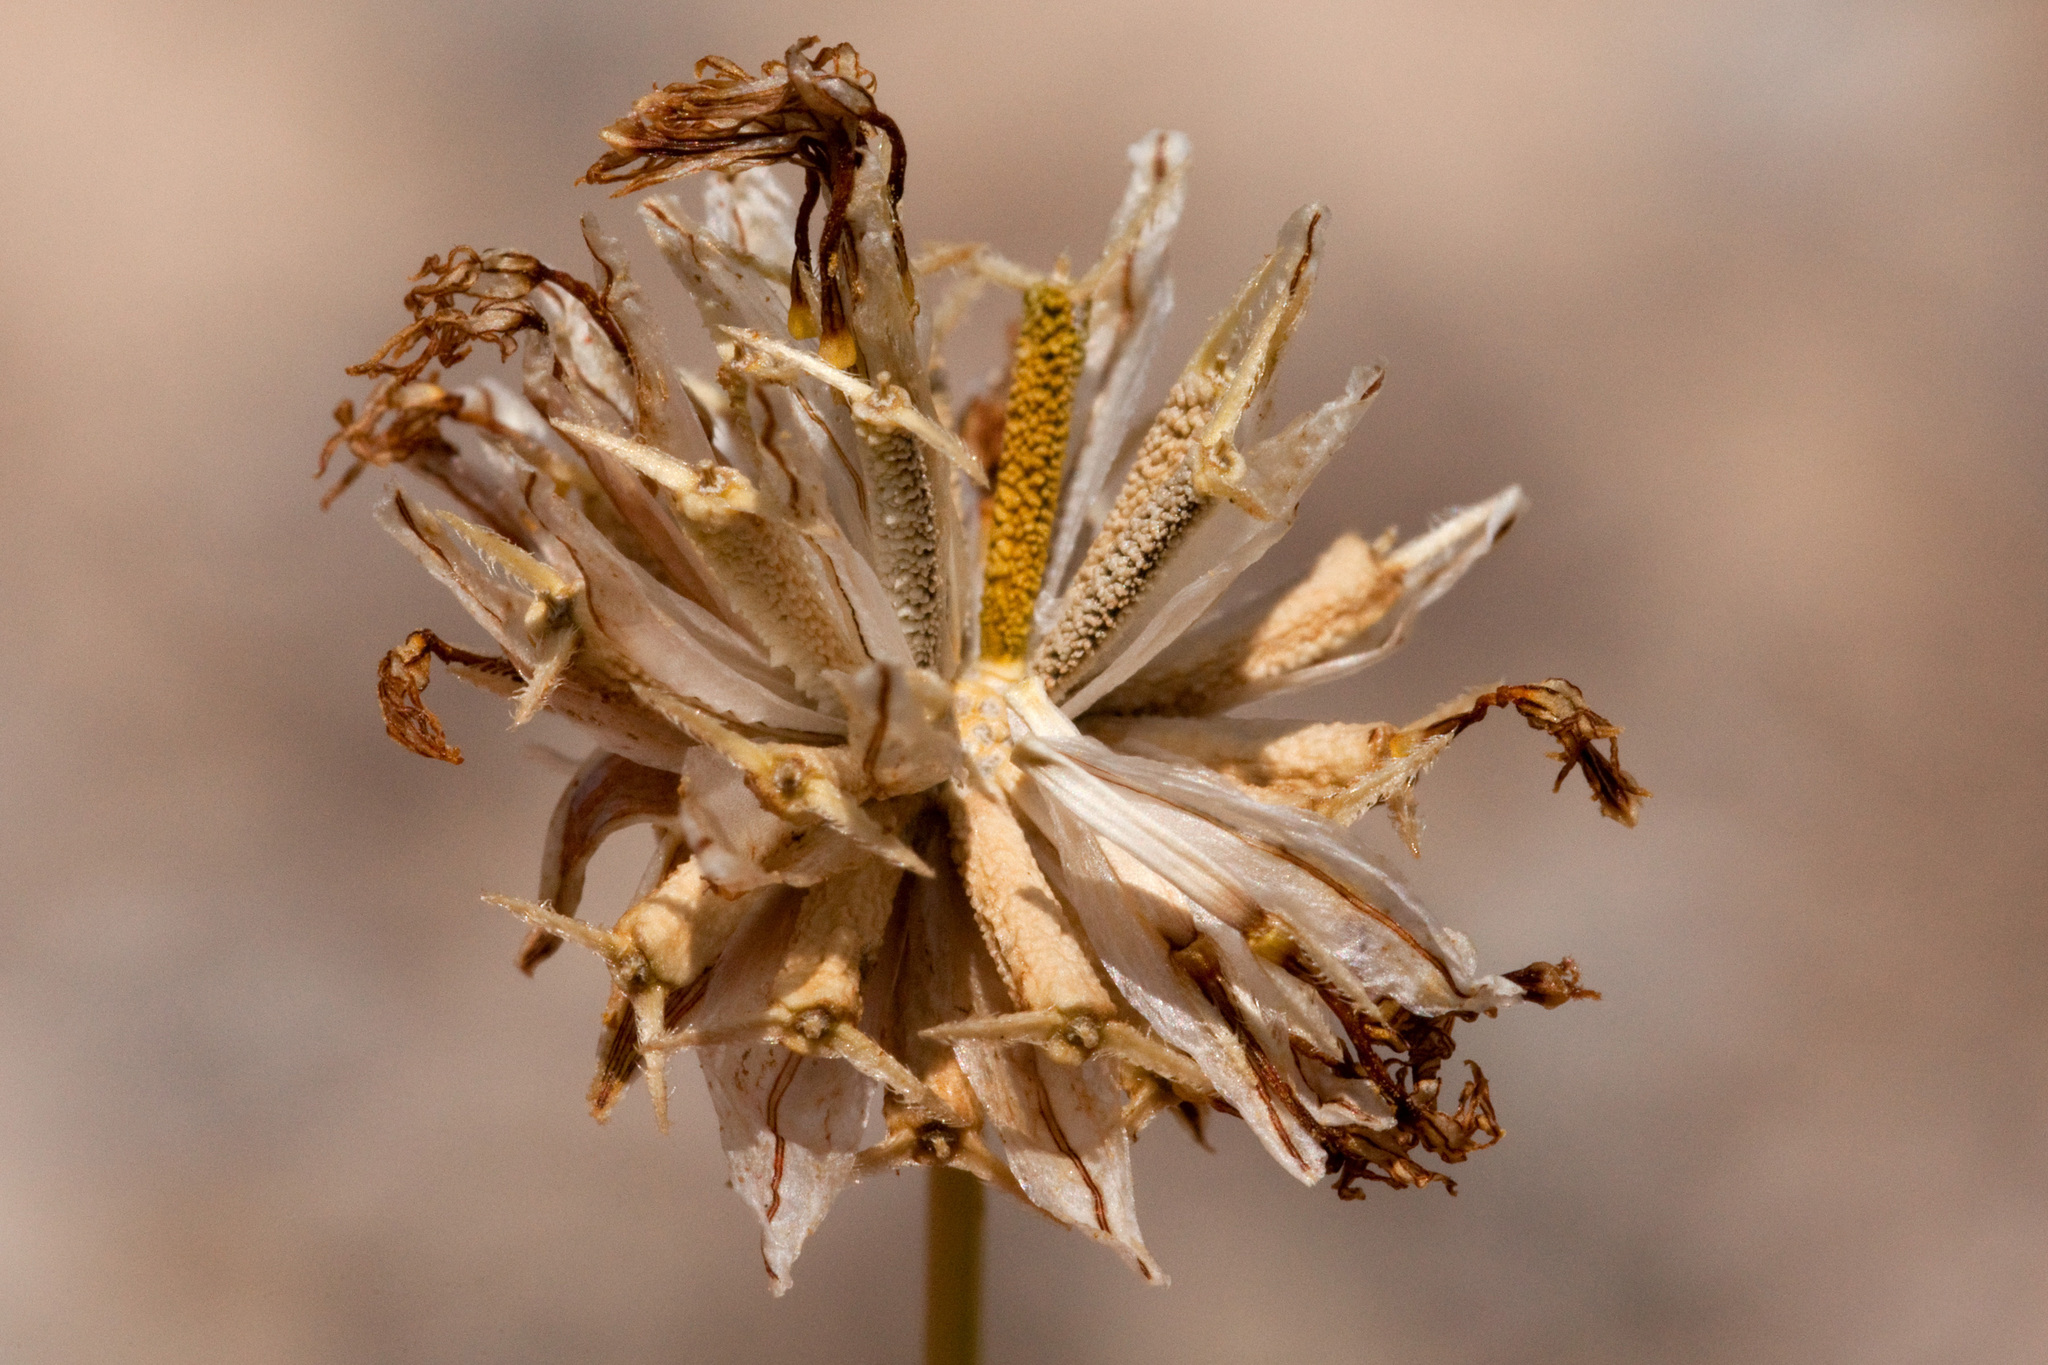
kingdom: Plantae
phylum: Tracheophyta
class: Magnoliopsida
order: Asterales
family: Asteraceae
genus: Thelesperma
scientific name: Thelesperma megapotamicum
